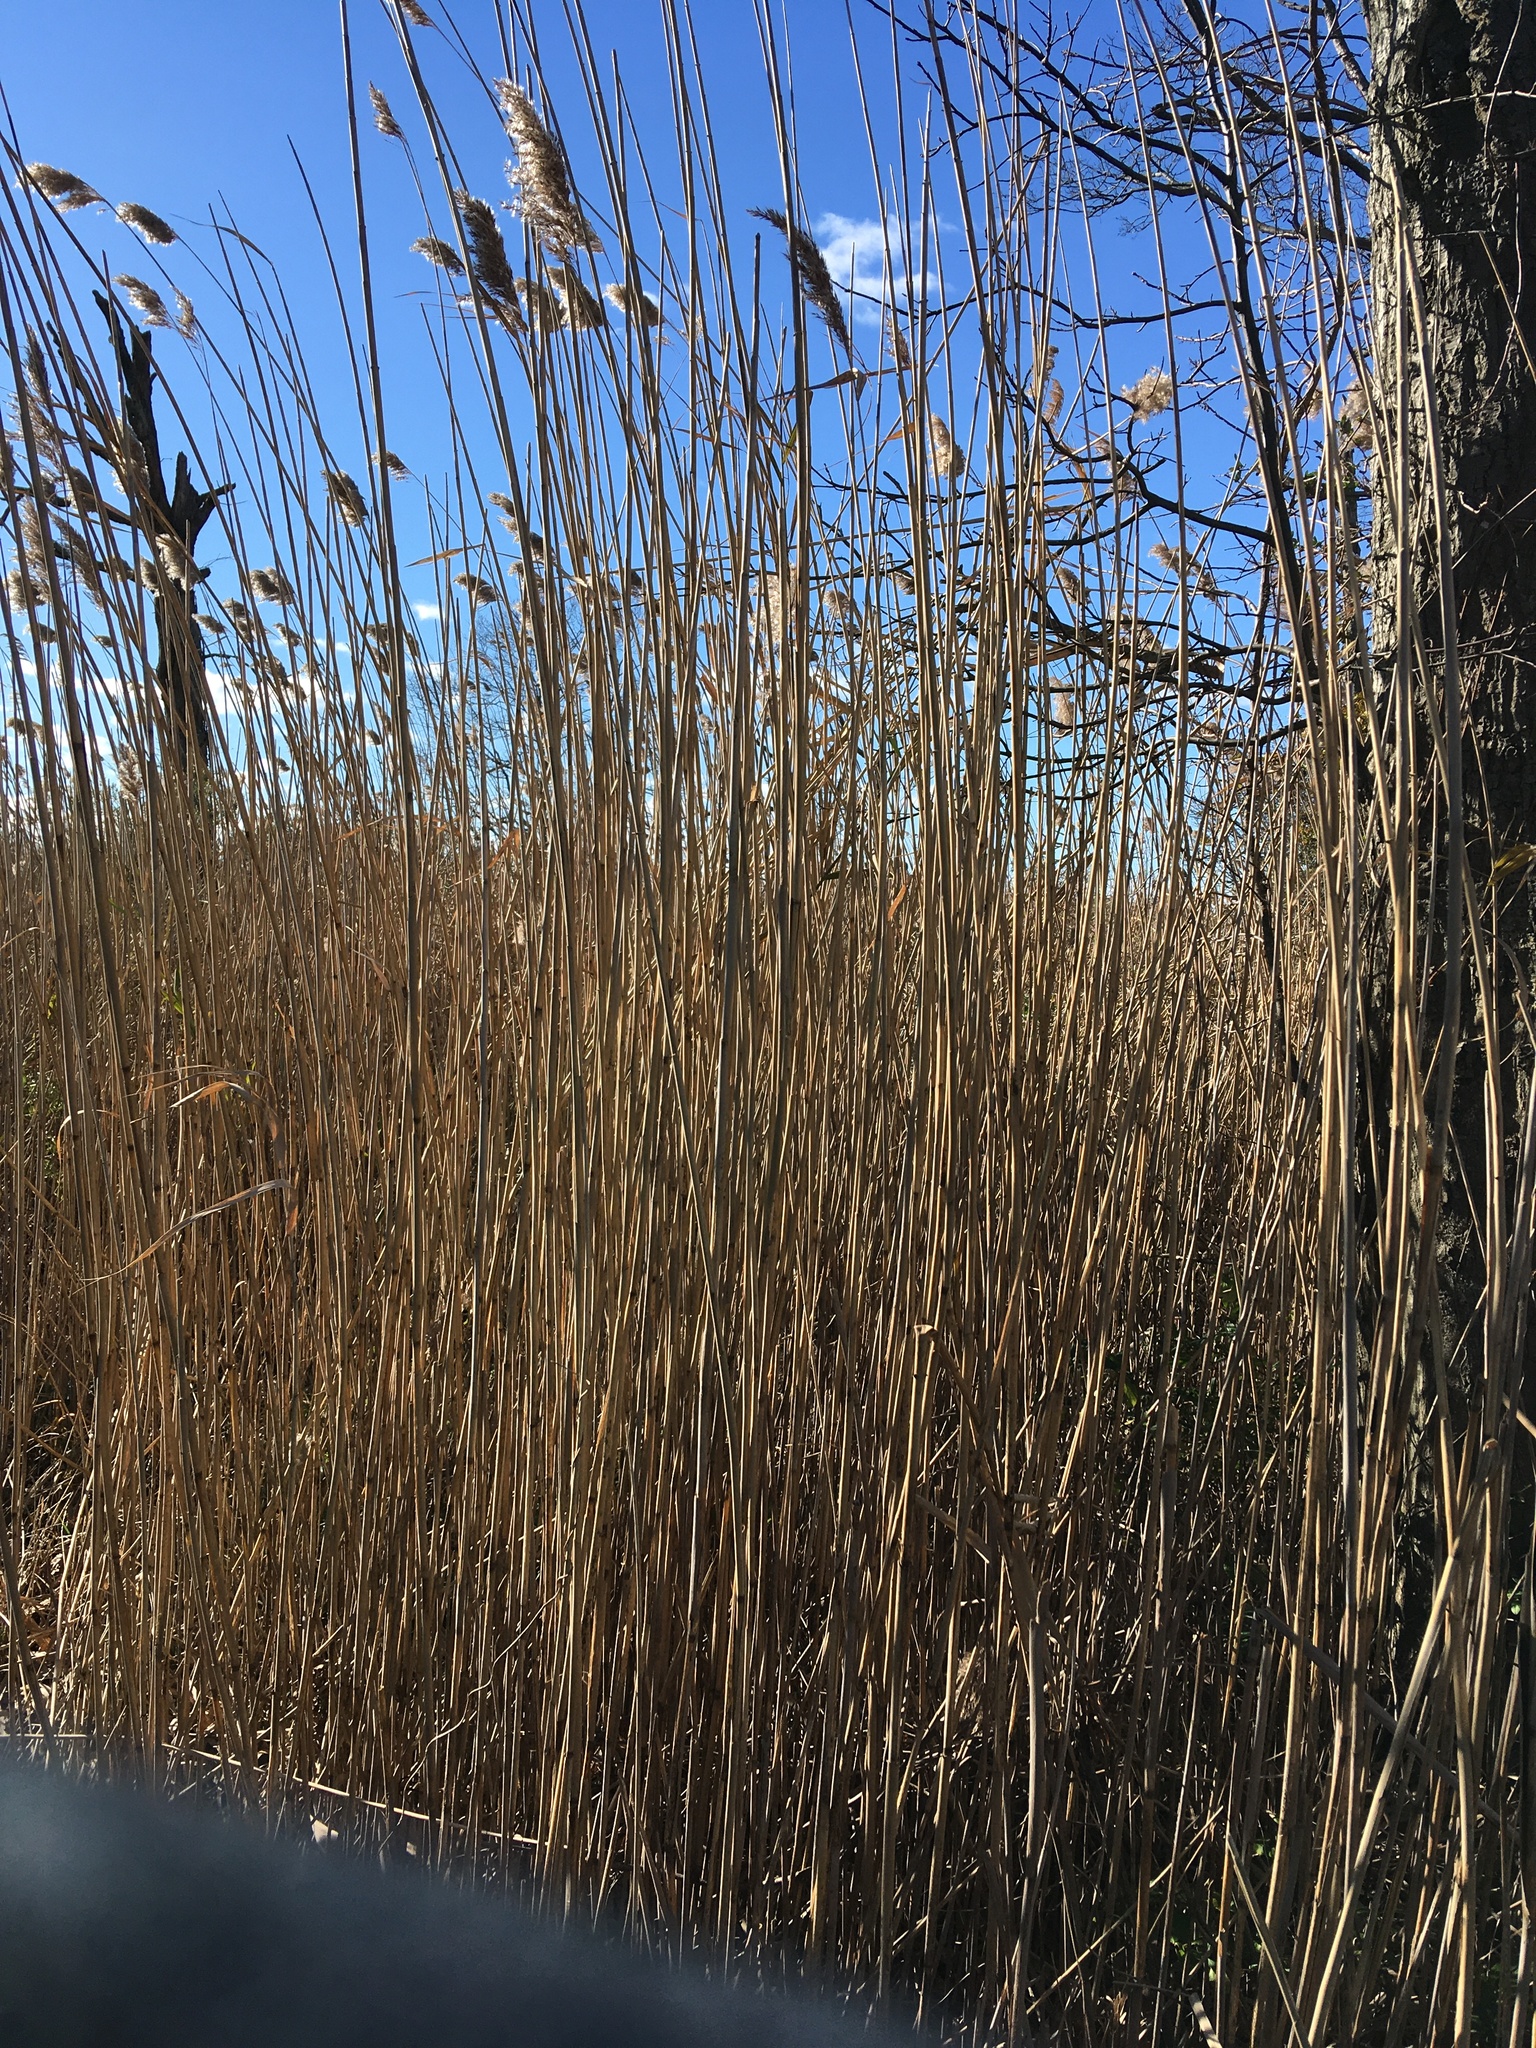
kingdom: Plantae
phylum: Tracheophyta
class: Liliopsida
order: Poales
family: Poaceae
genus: Phragmites
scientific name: Phragmites australis
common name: Common reed
